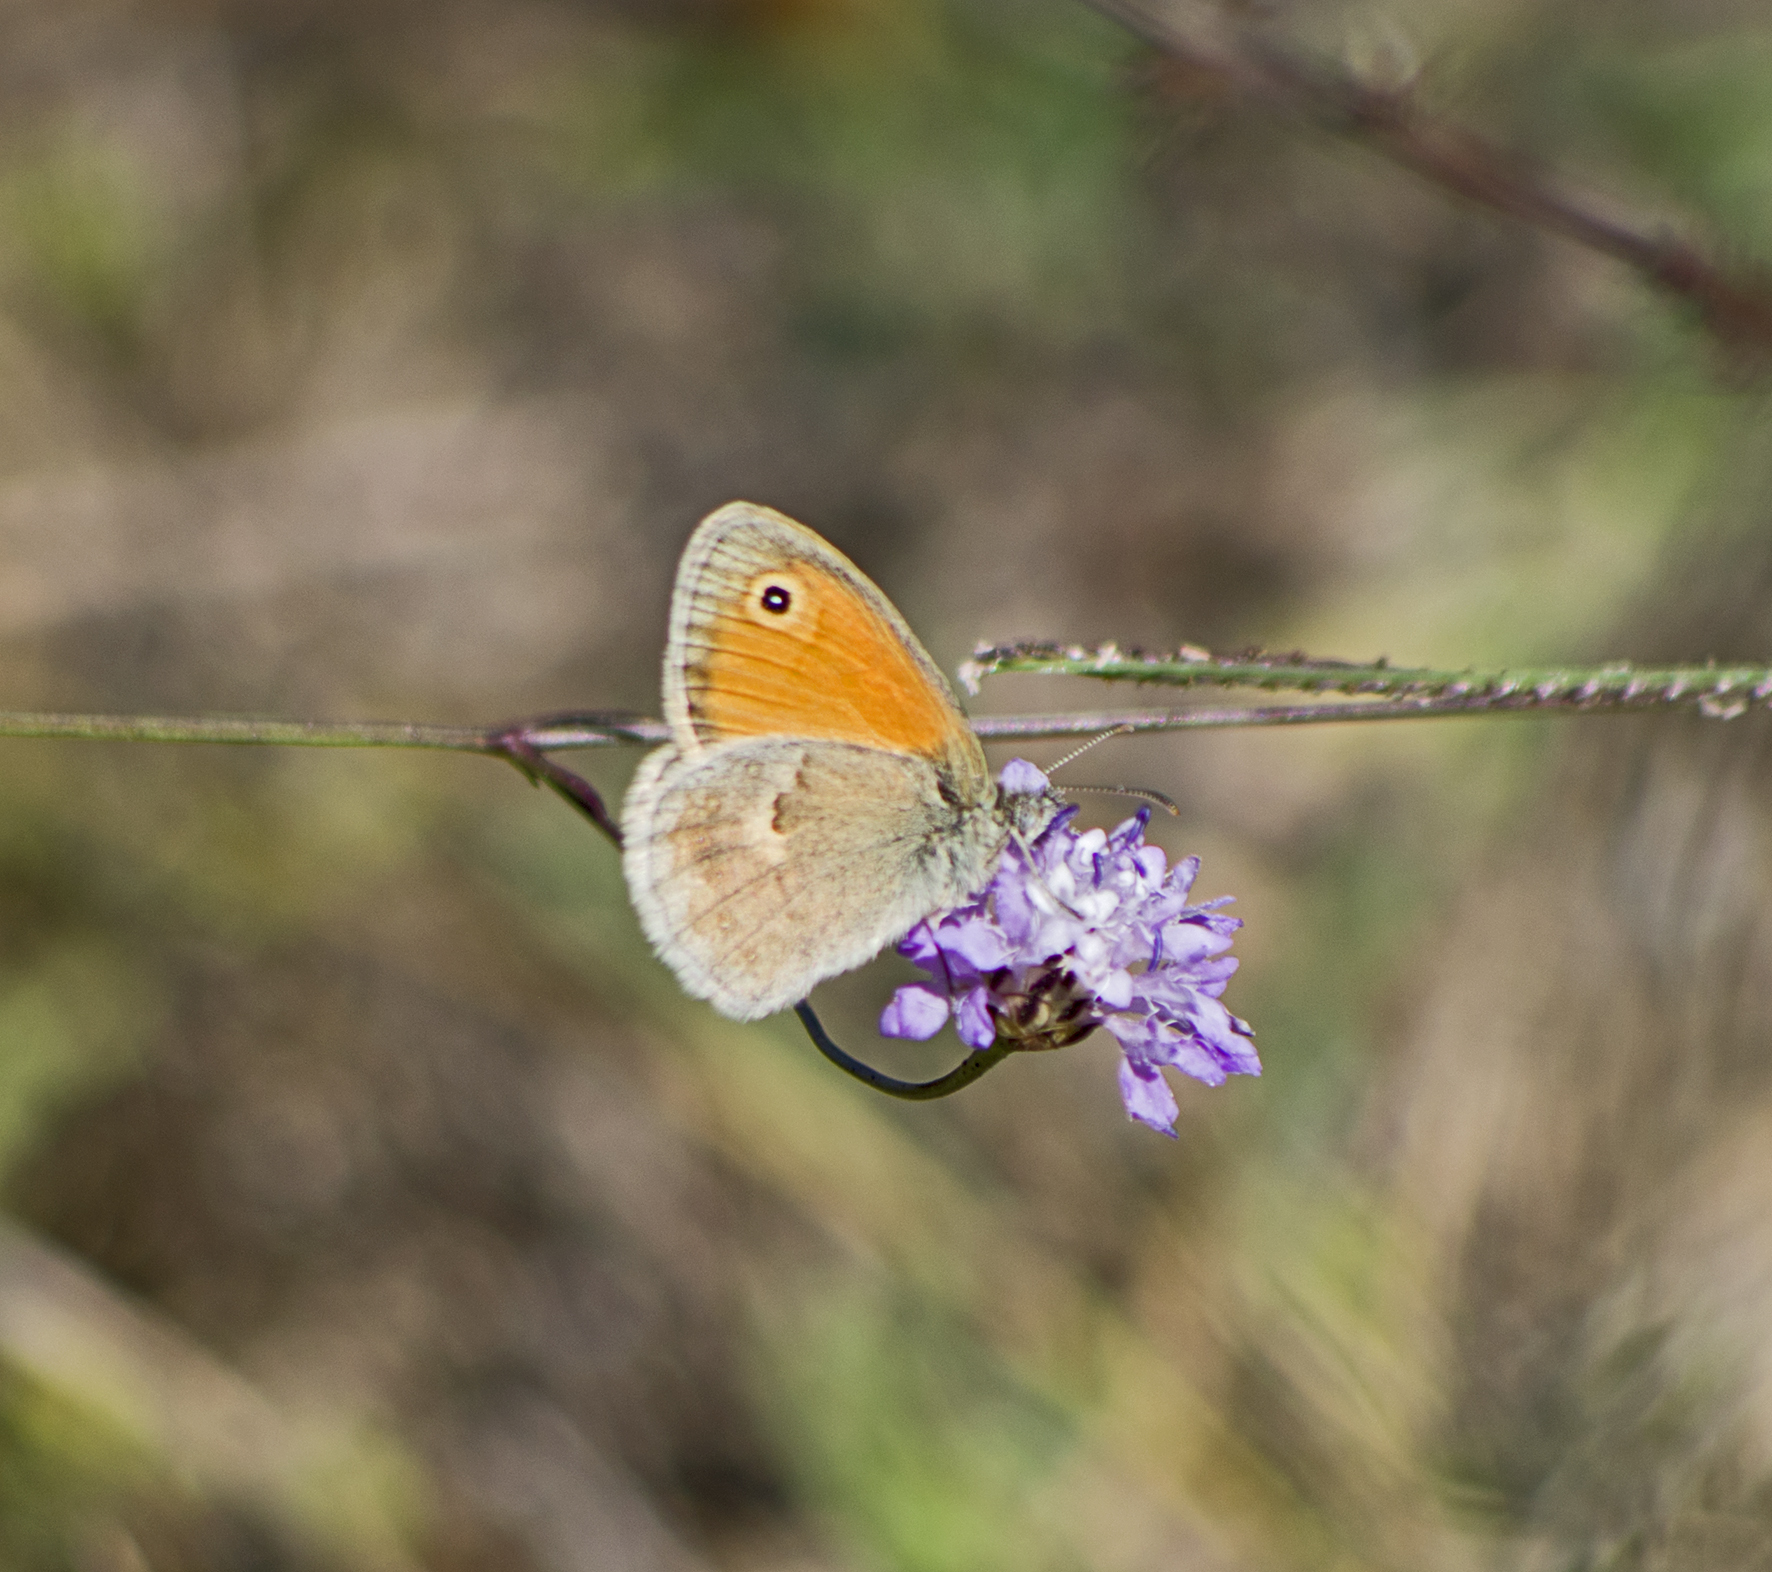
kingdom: Animalia
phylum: Arthropoda
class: Insecta
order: Lepidoptera
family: Nymphalidae
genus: Coenonympha
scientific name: Coenonympha pamphilus
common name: Small heath
